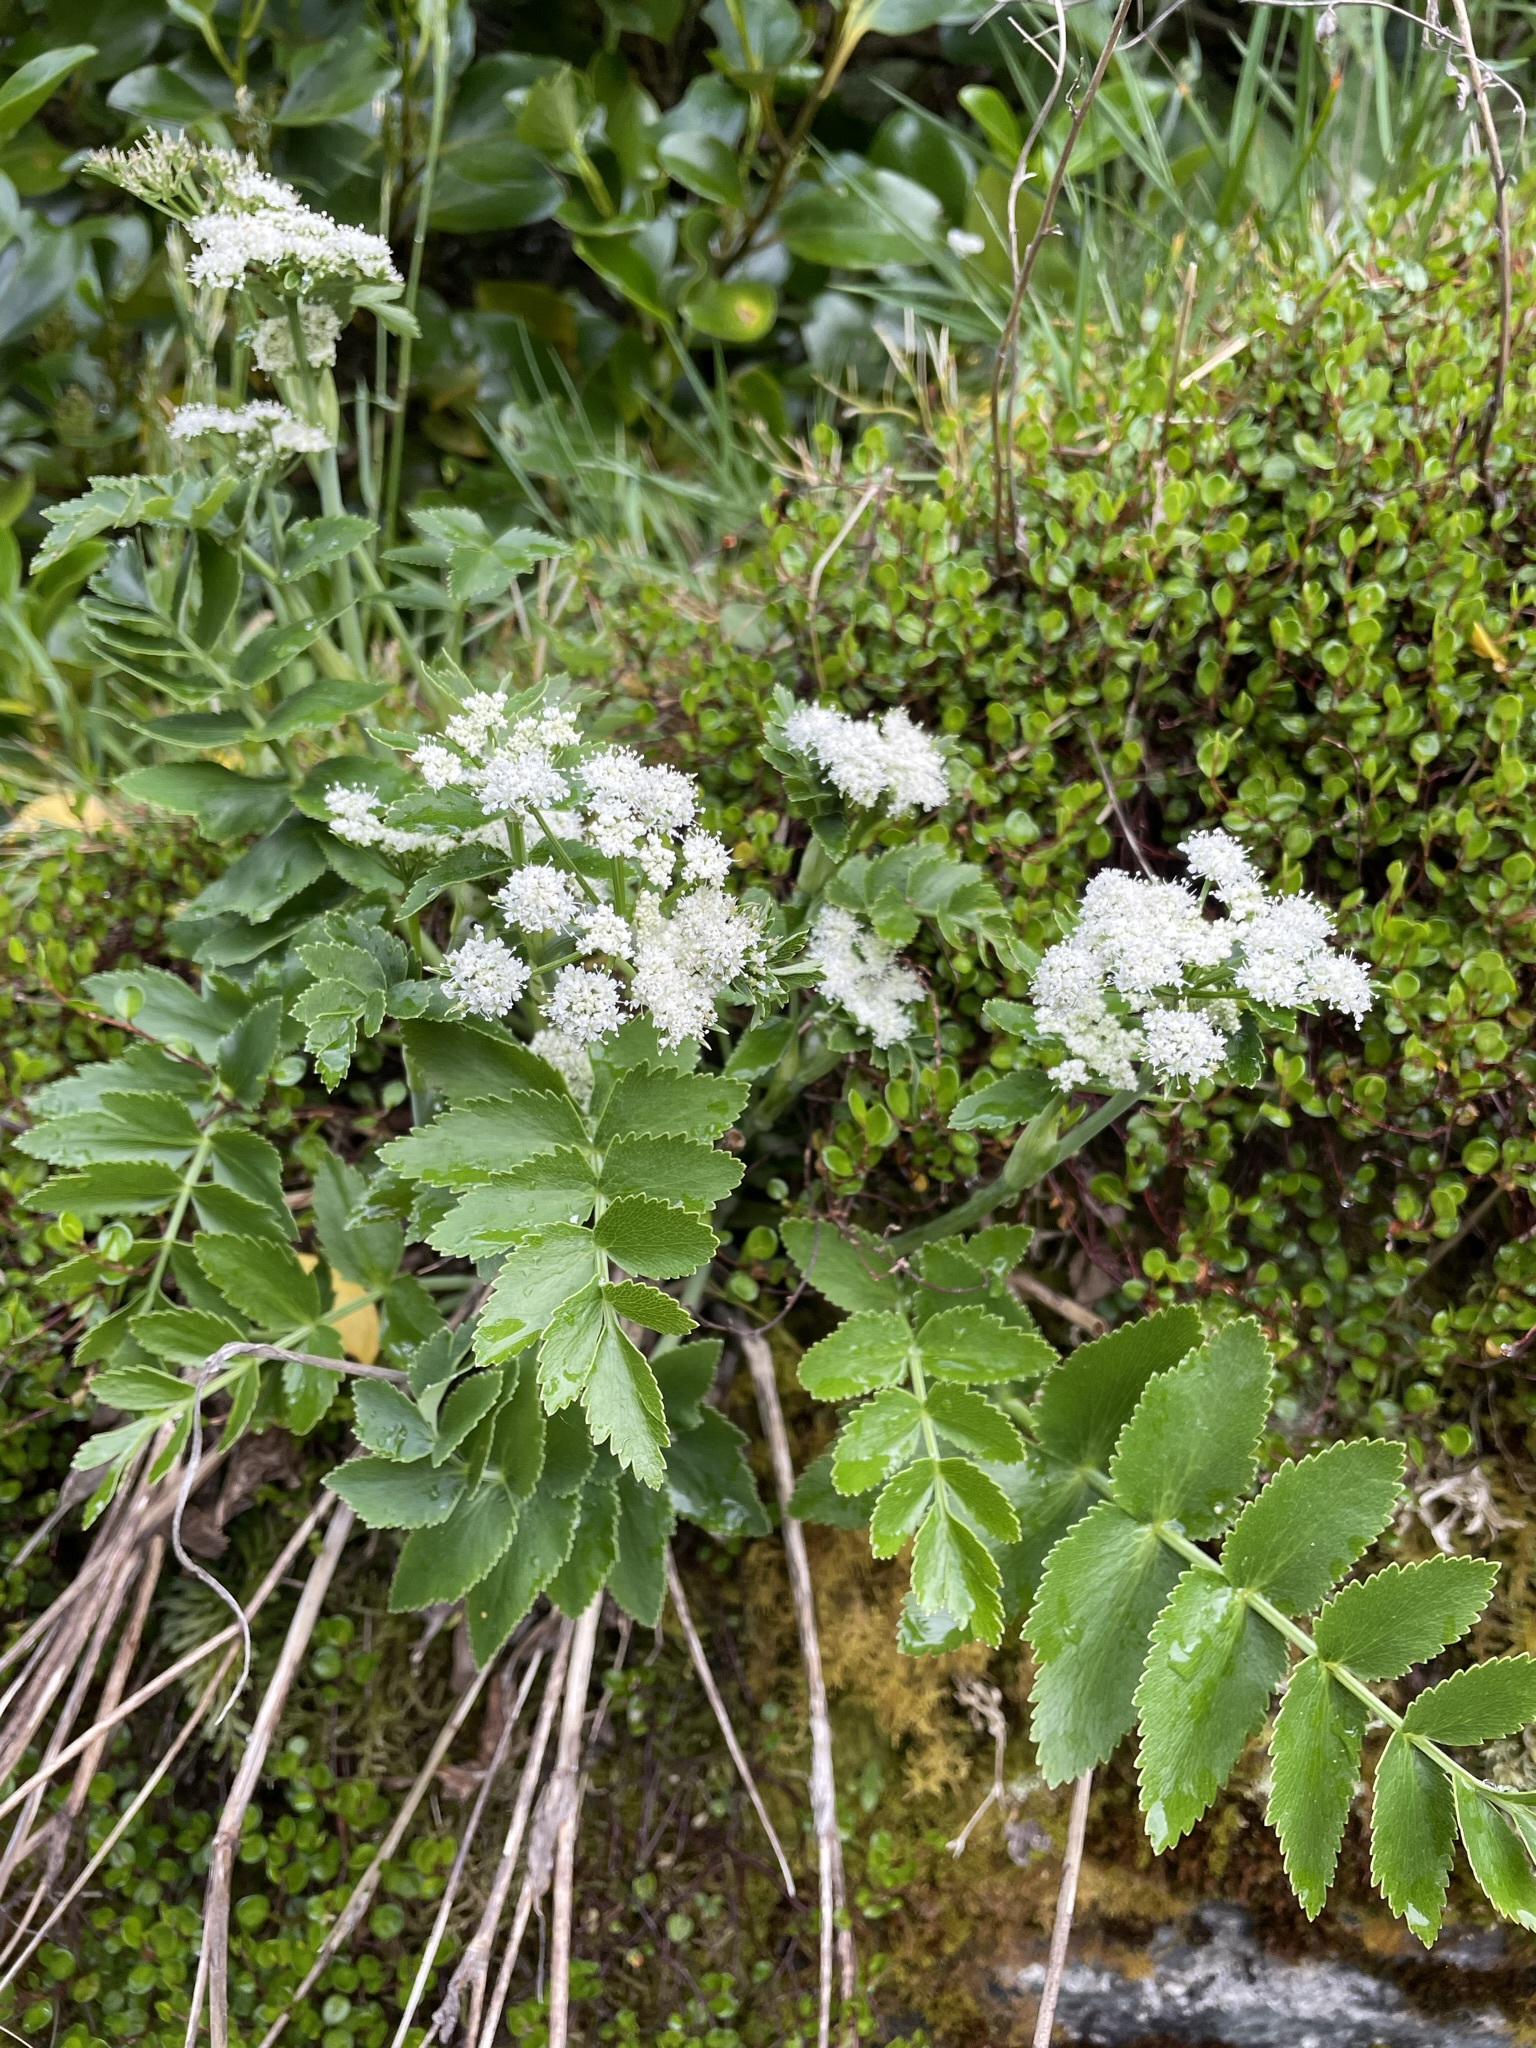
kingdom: Plantae
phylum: Tracheophyta
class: Magnoliopsida
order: Apiales
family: Apiaceae
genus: Gingidia
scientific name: Gingidia montana
